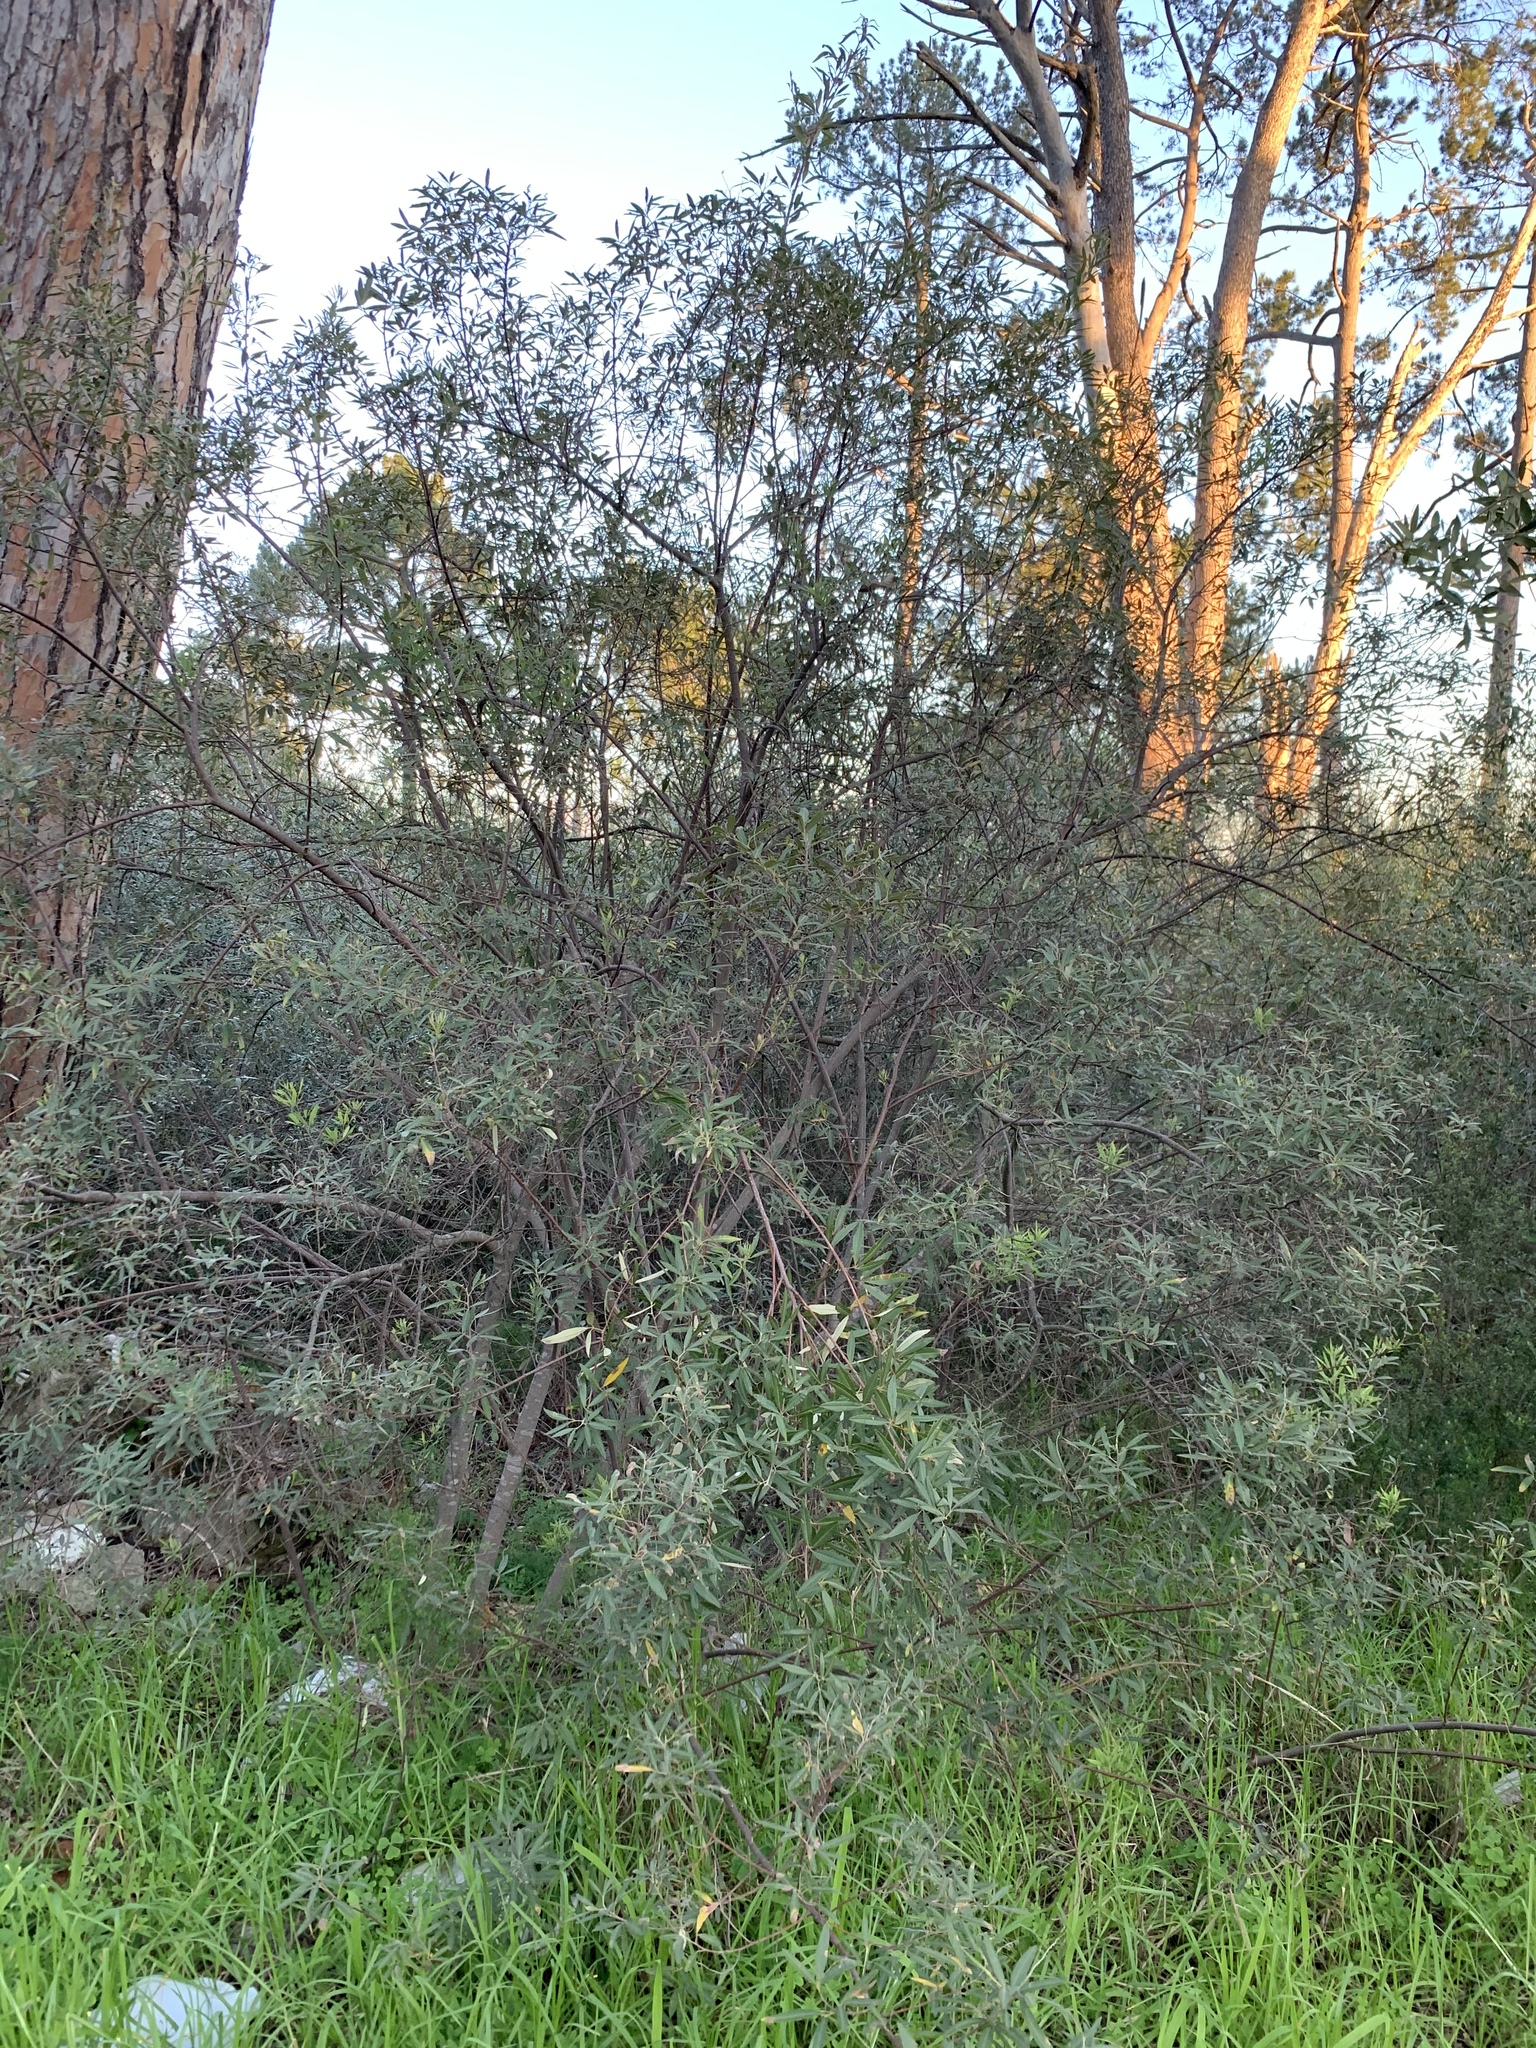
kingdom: Plantae
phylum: Tracheophyta
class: Magnoliopsida
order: Sapindales
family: Anacardiaceae
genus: Searsia
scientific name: Searsia angustifolia
